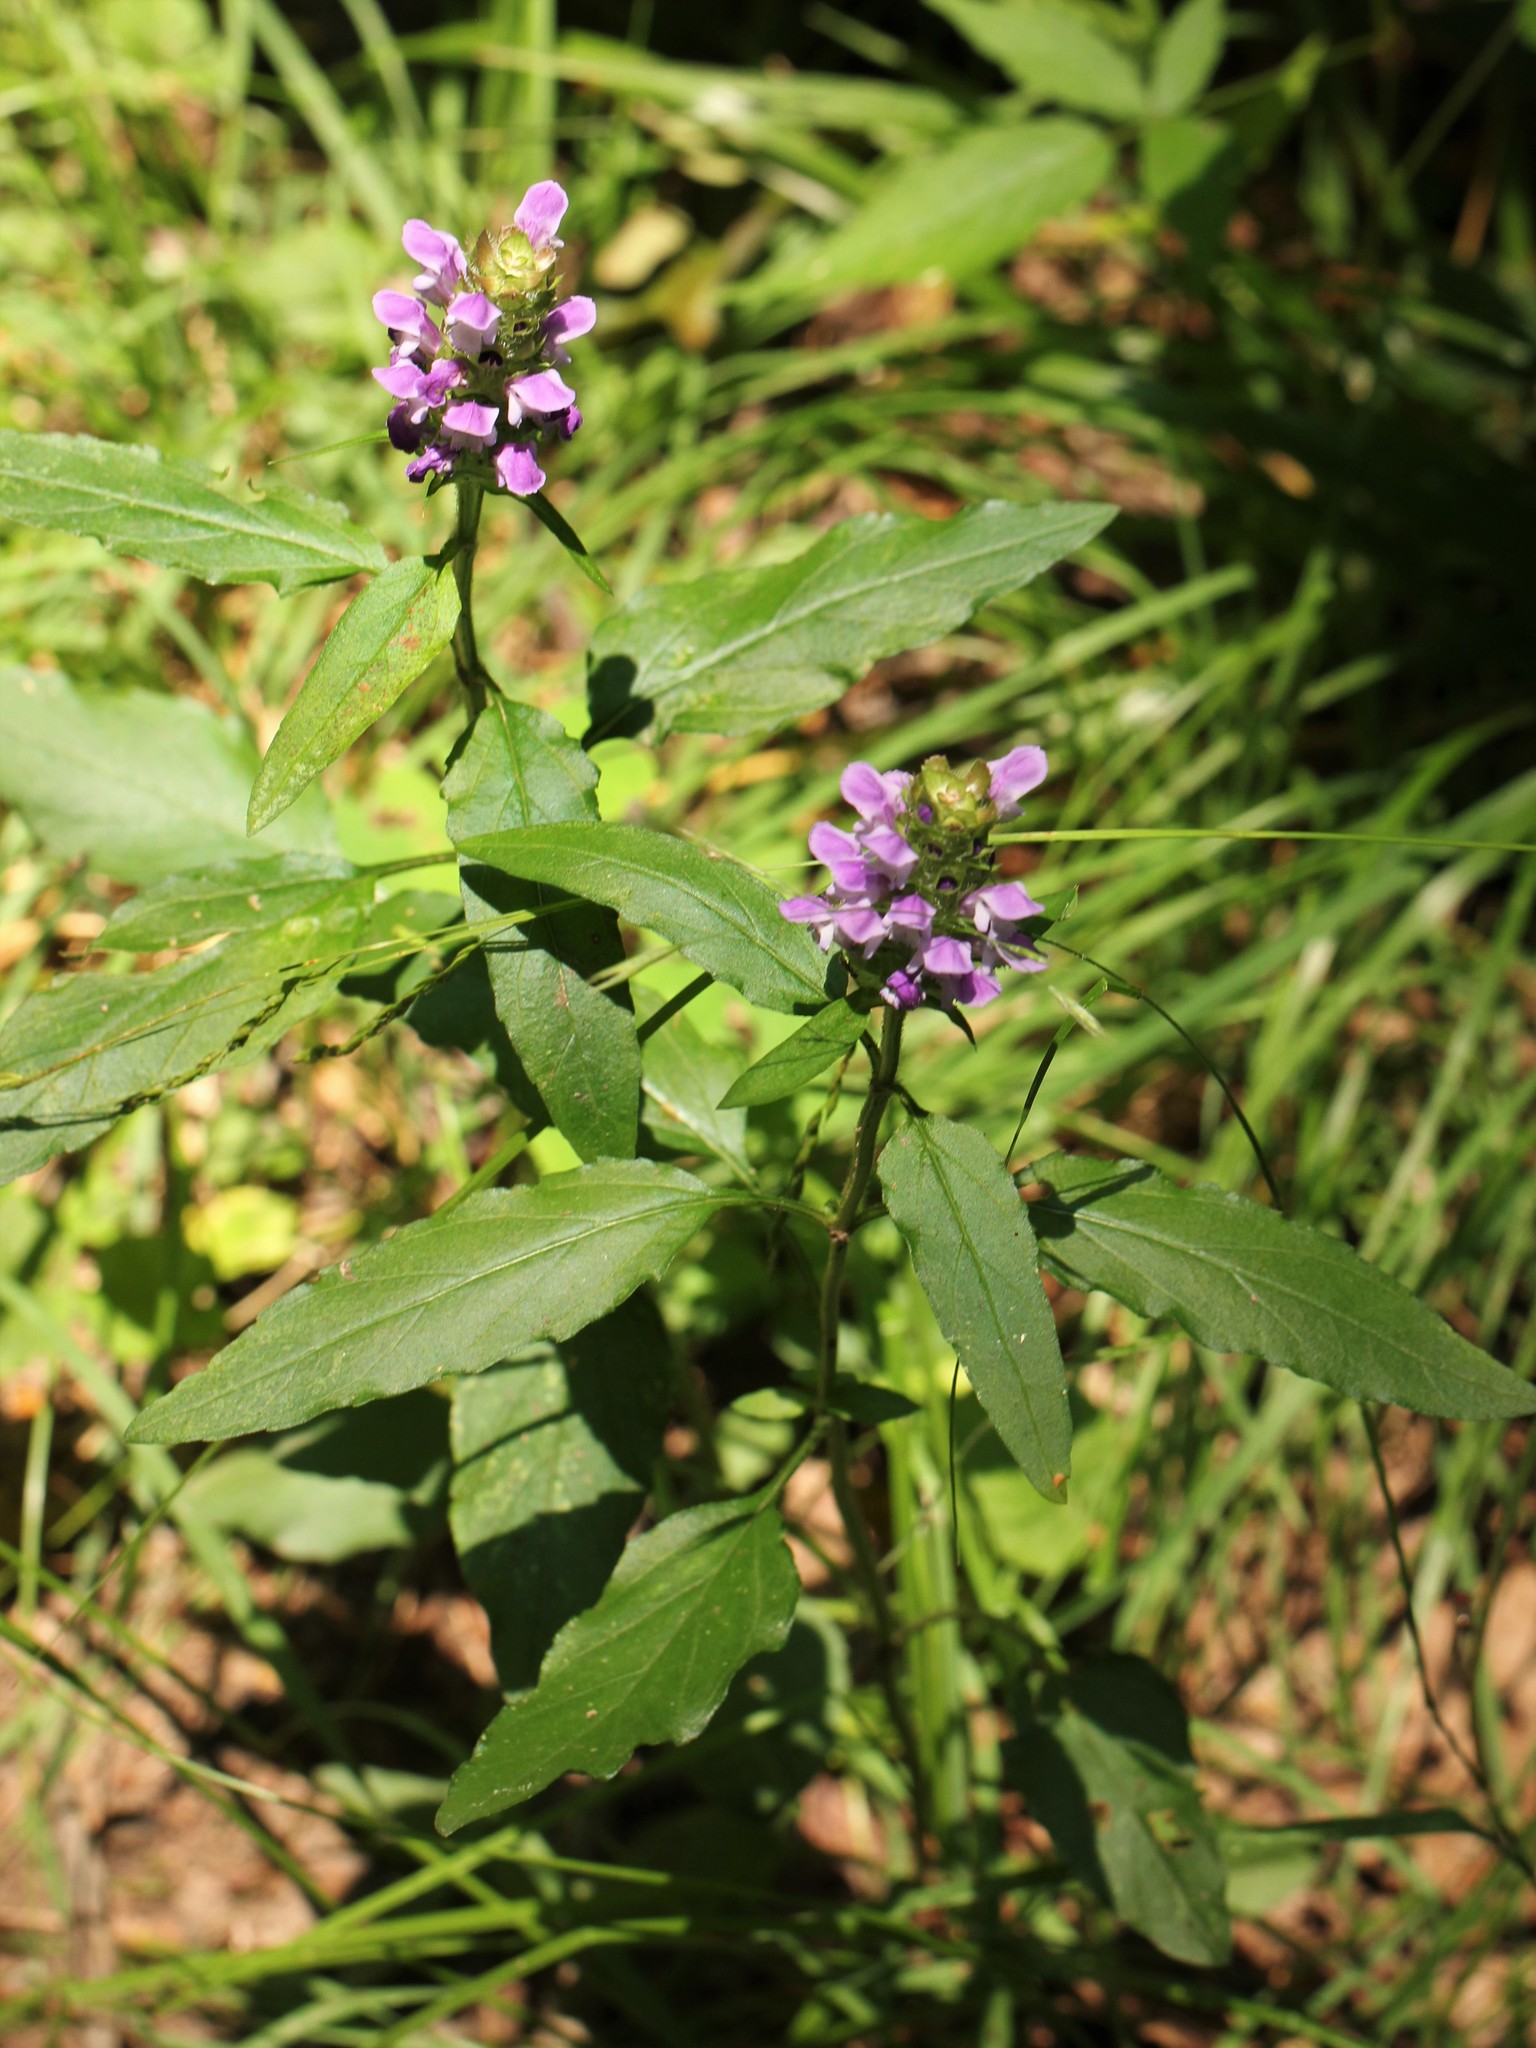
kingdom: Plantae
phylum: Tracheophyta
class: Magnoliopsida
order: Lamiales
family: Lamiaceae
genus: Prunella
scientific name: Prunella vulgaris
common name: Heal-all
